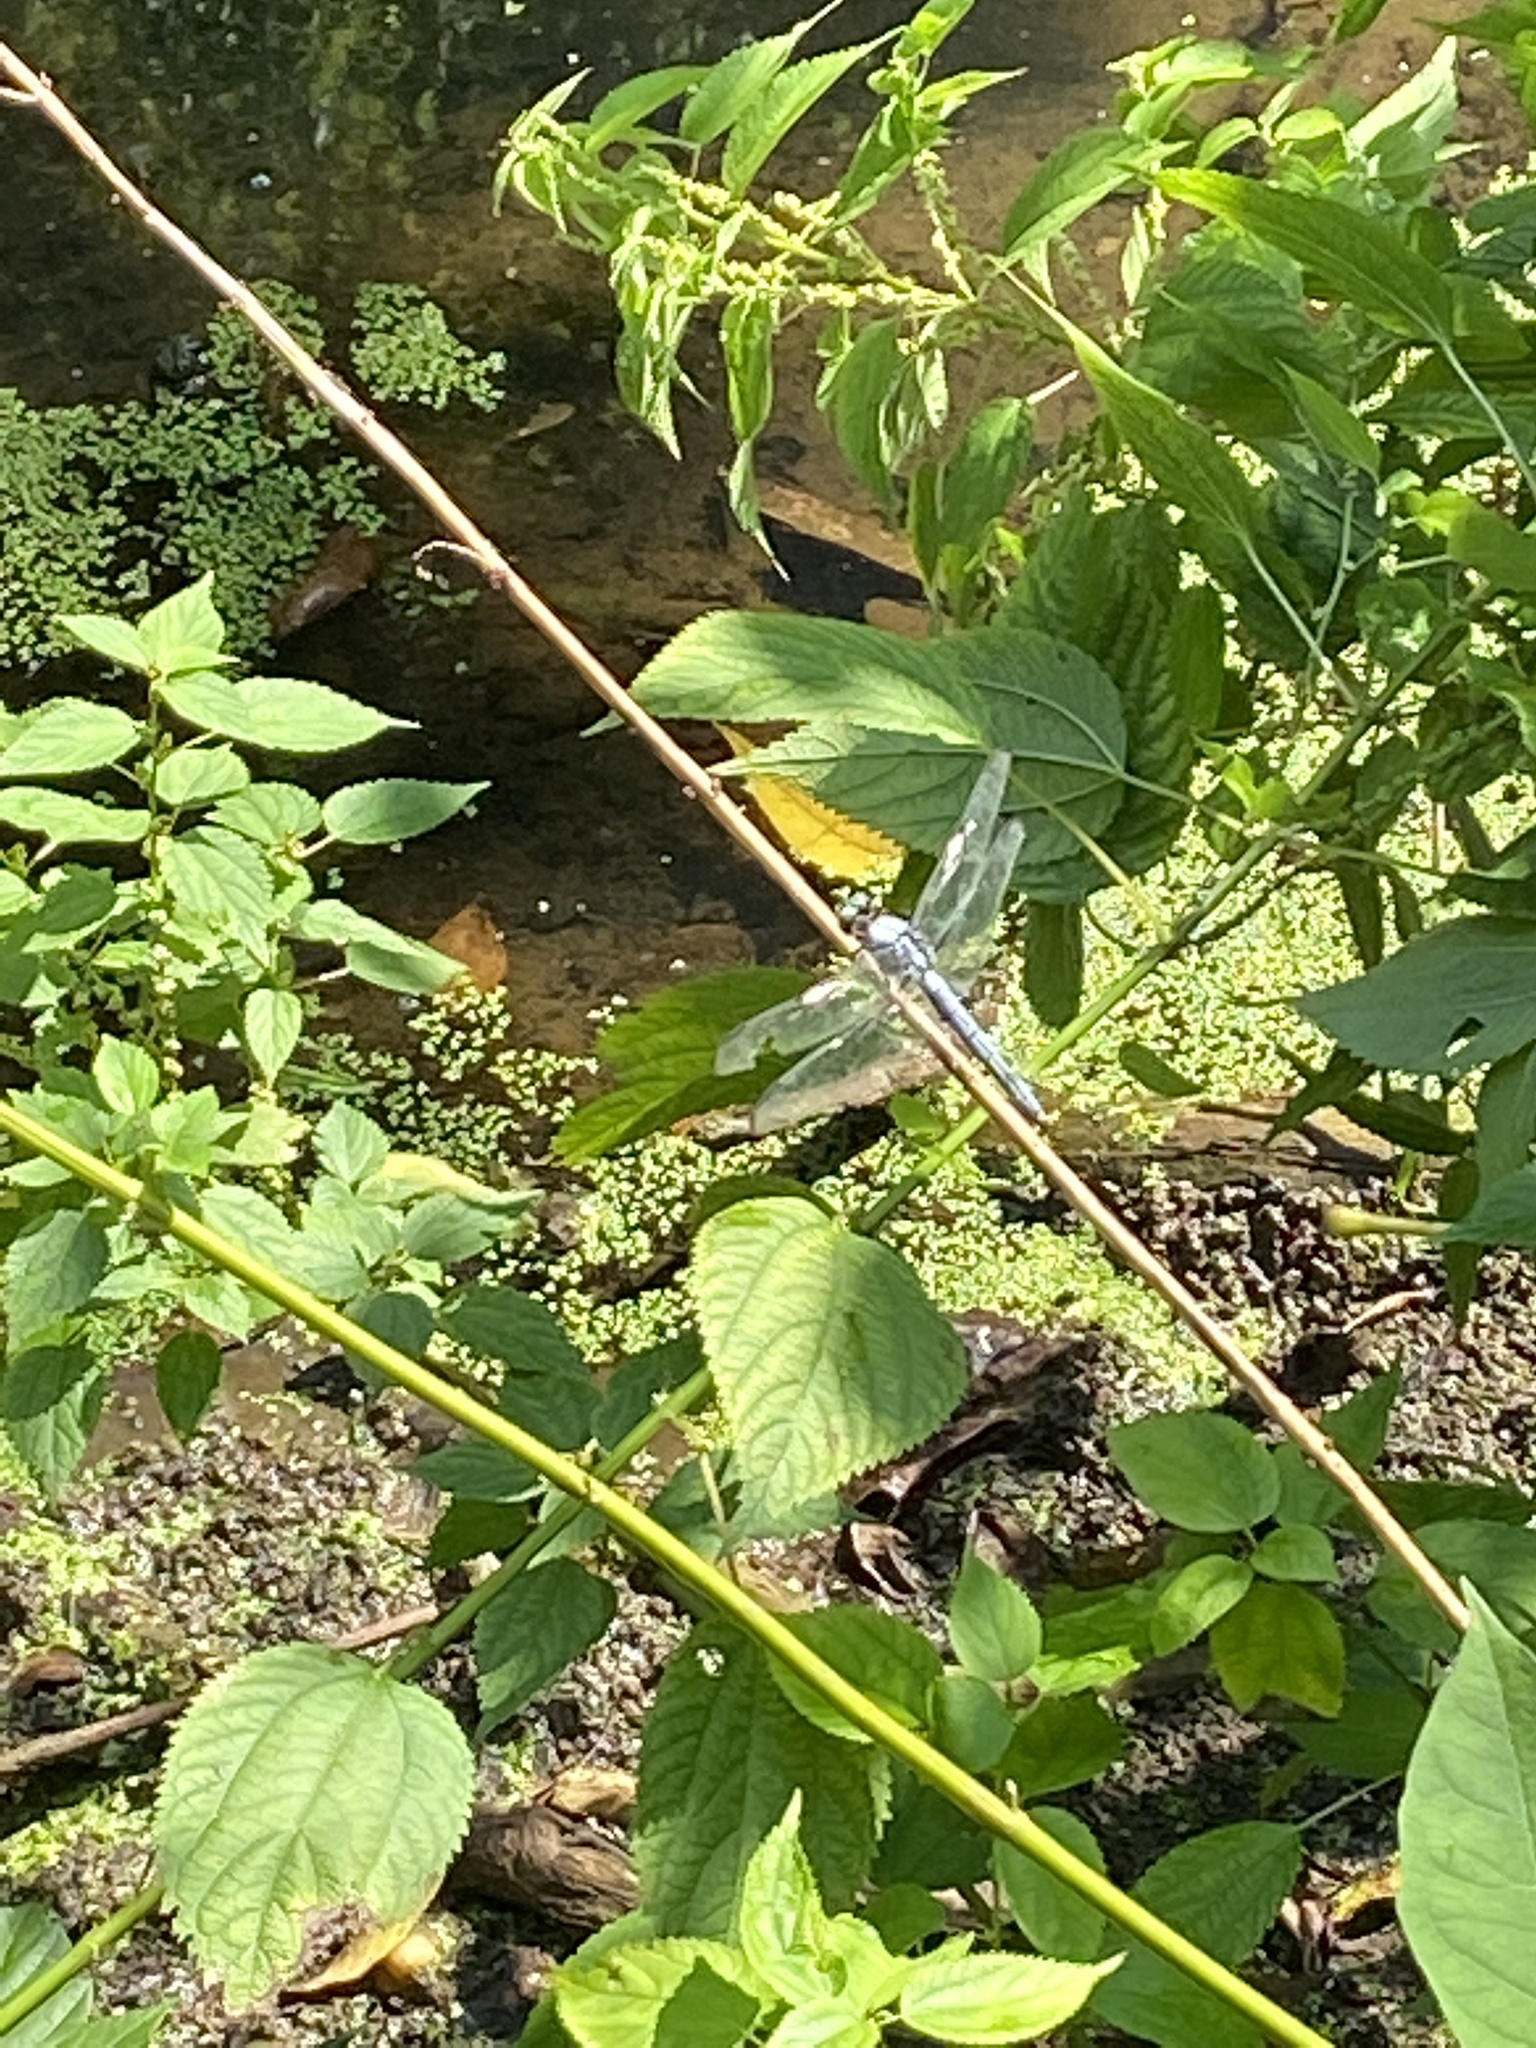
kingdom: Animalia
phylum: Arthropoda
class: Insecta
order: Odonata
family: Libellulidae
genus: Libellula
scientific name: Libellula vibrans
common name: Great blue skimmer
